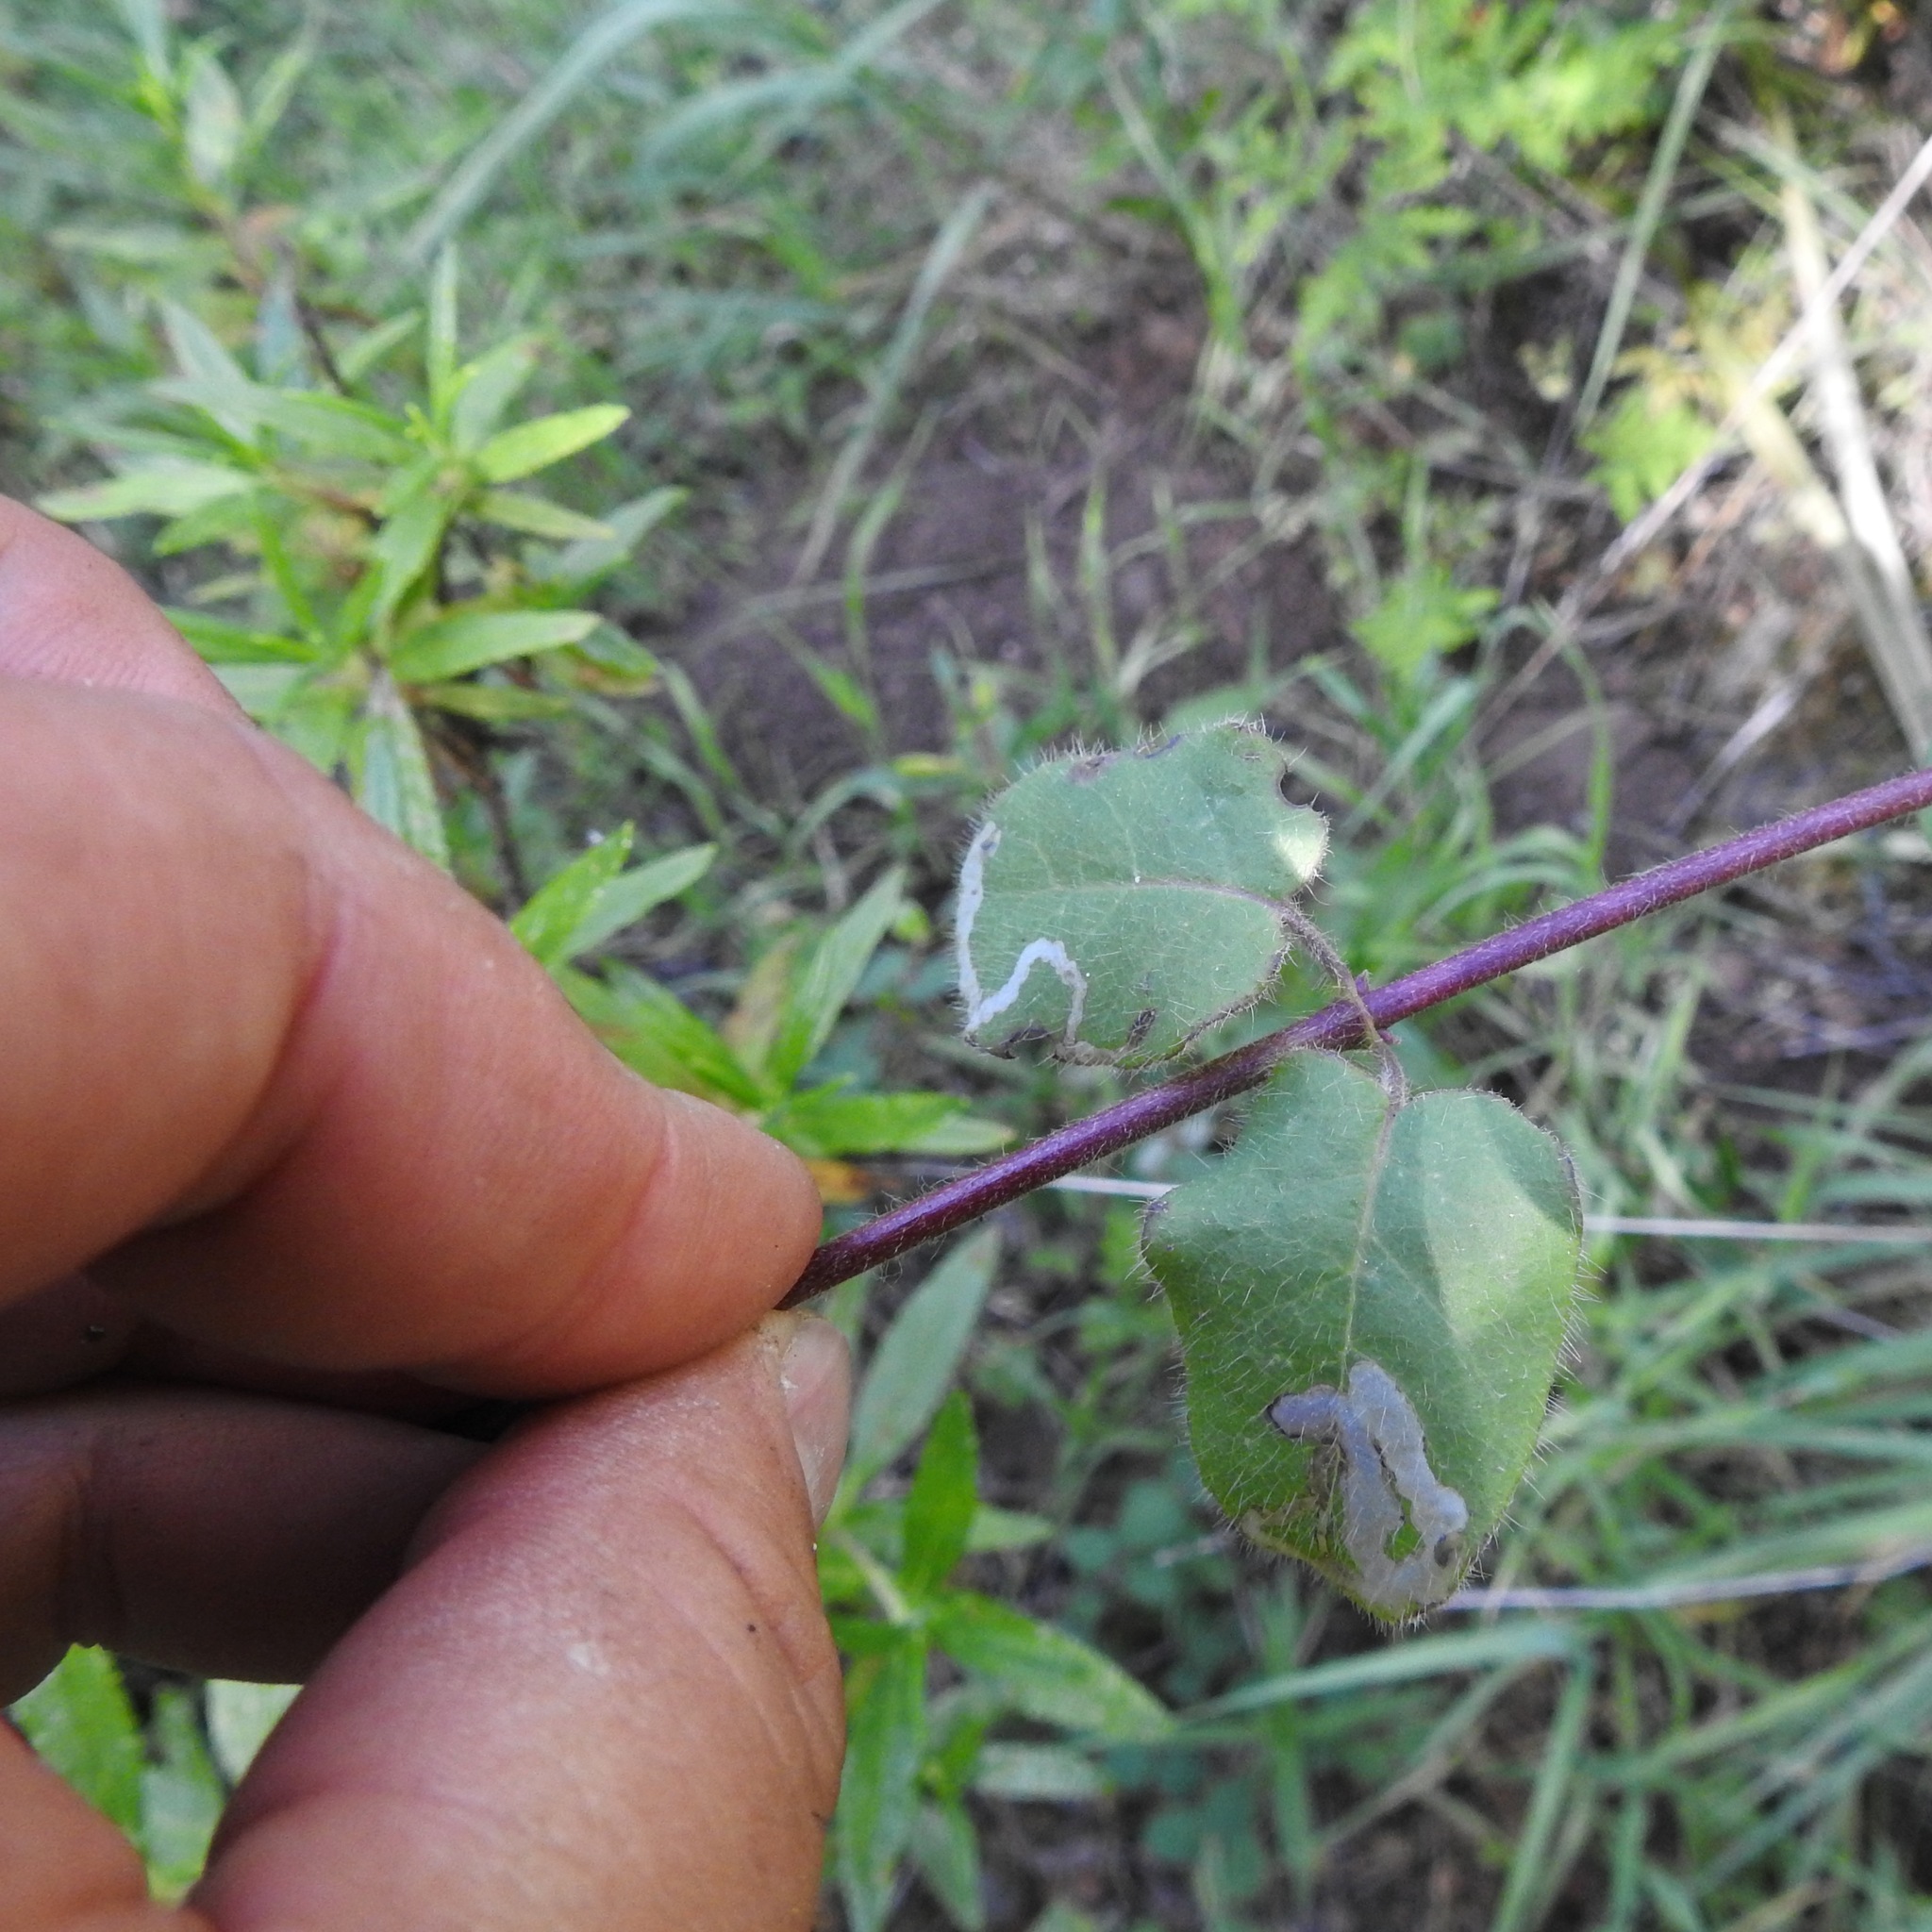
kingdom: Plantae
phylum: Tracheophyta
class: Magnoliopsida
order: Dipsacales
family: Caprifoliaceae
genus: Lonicera
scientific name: Lonicera hispidula
